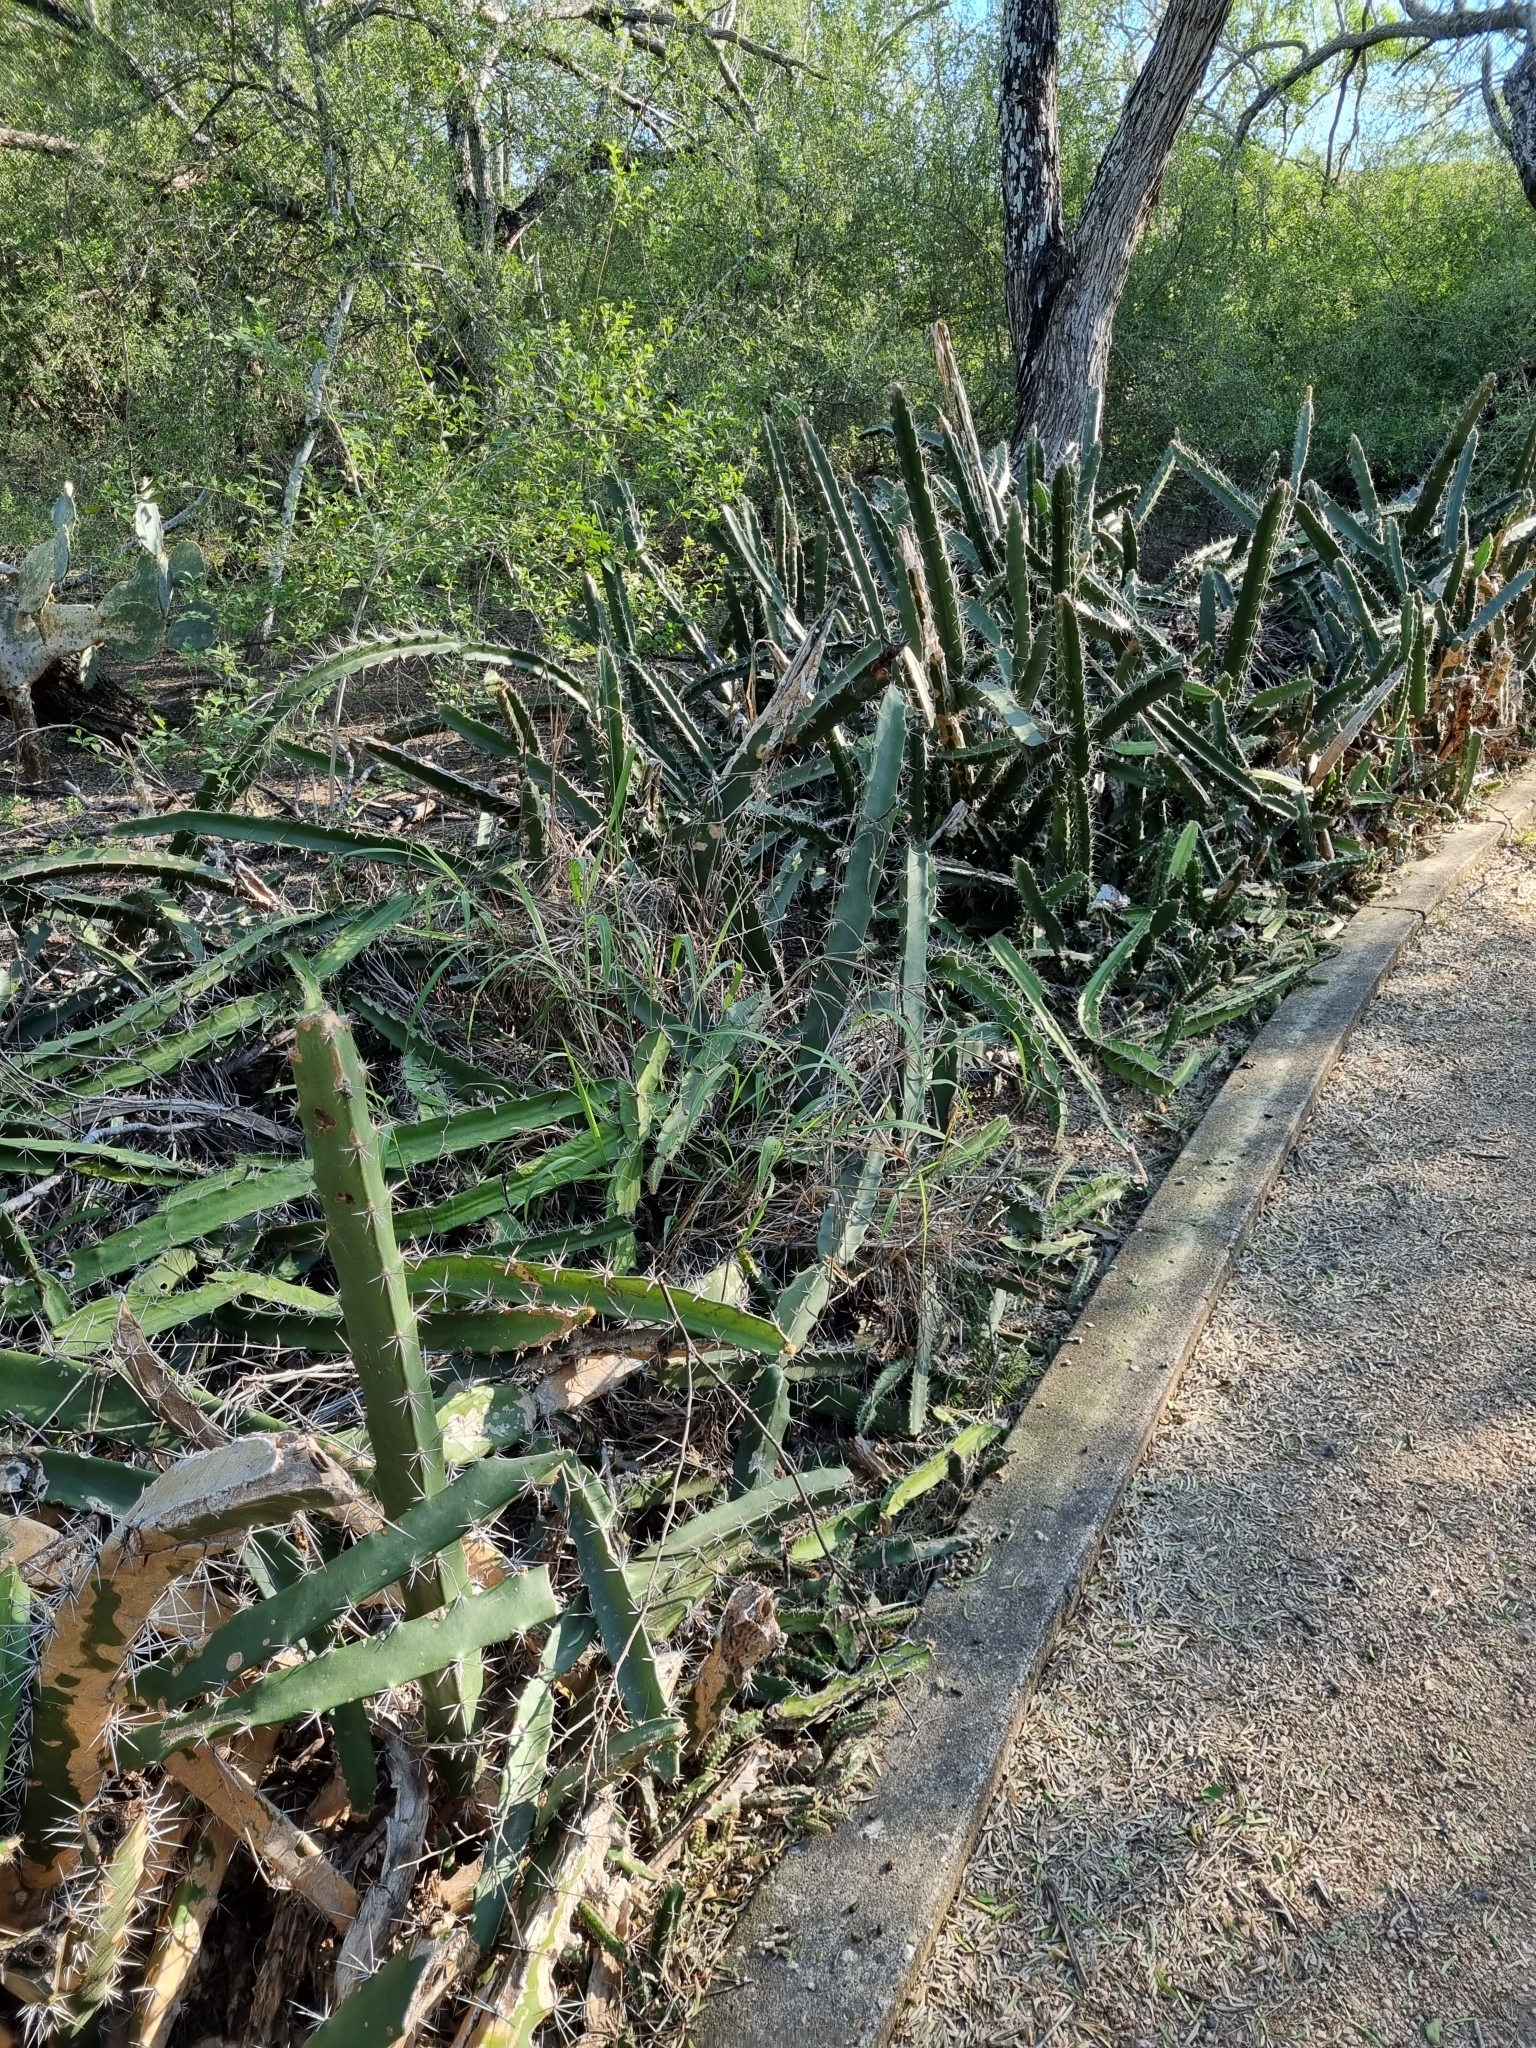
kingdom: Plantae
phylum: Tracheophyta
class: Magnoliopsida
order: Caryophyllales
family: Cactaceae
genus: Acanthocereus
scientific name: Acanthocereus tetragonus
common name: Triangle cactus
